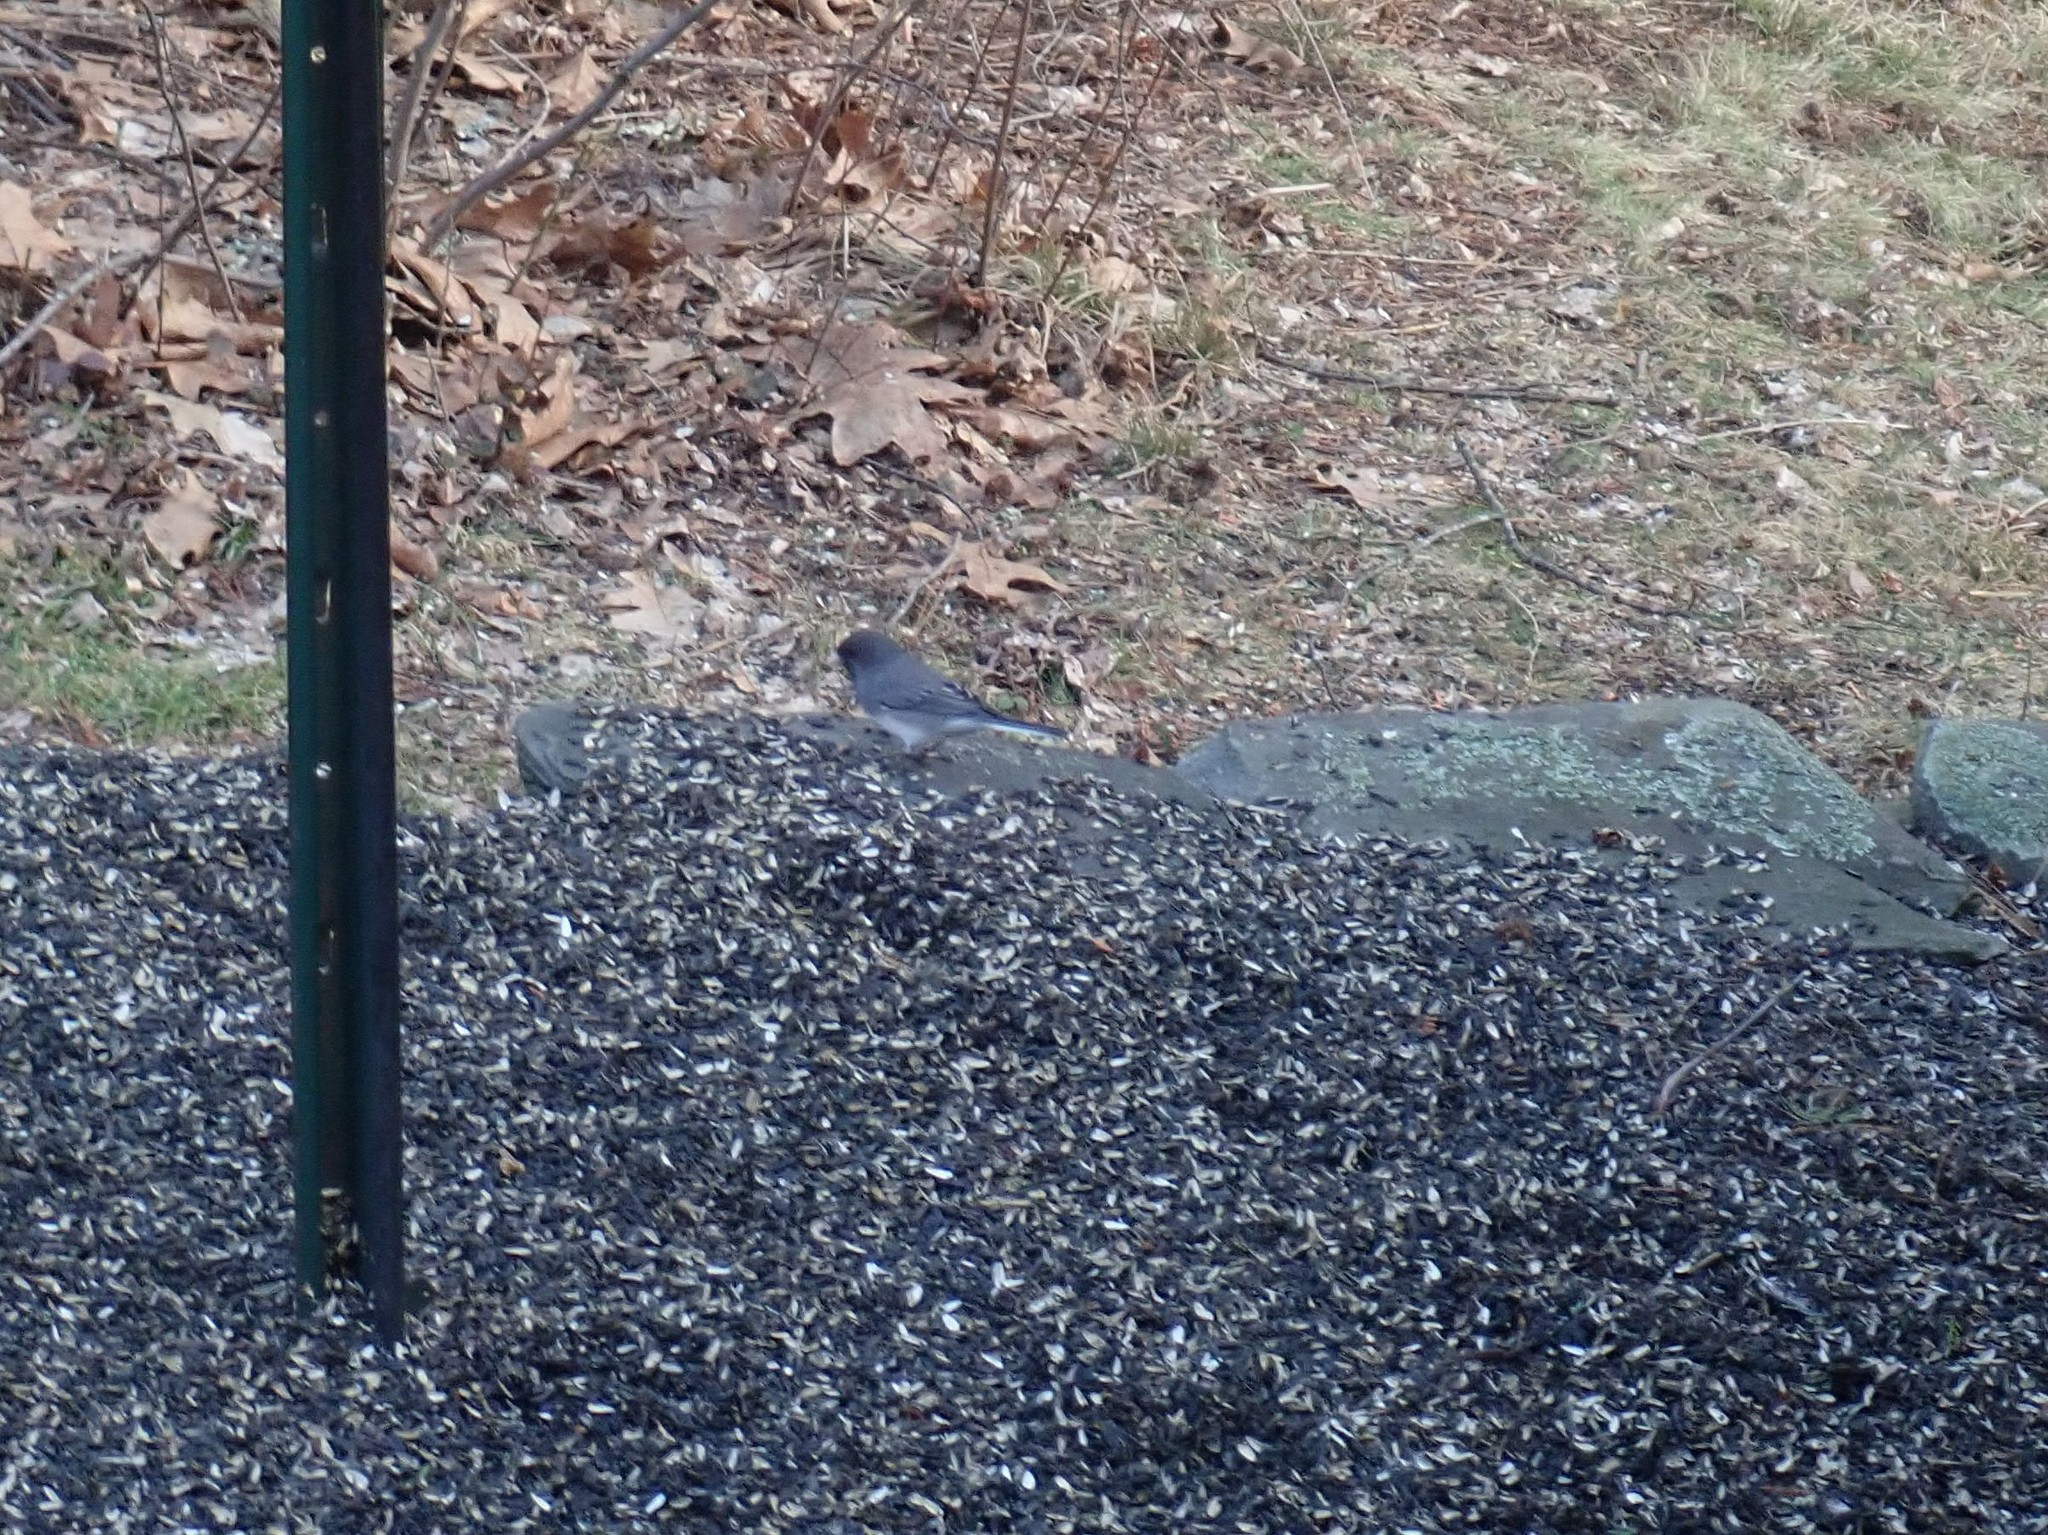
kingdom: Animalia
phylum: Chordata
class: Aves
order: Passeriformes
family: Passerellidae
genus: Junco
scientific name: Junco hyemalis
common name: Dark-eyed junco
